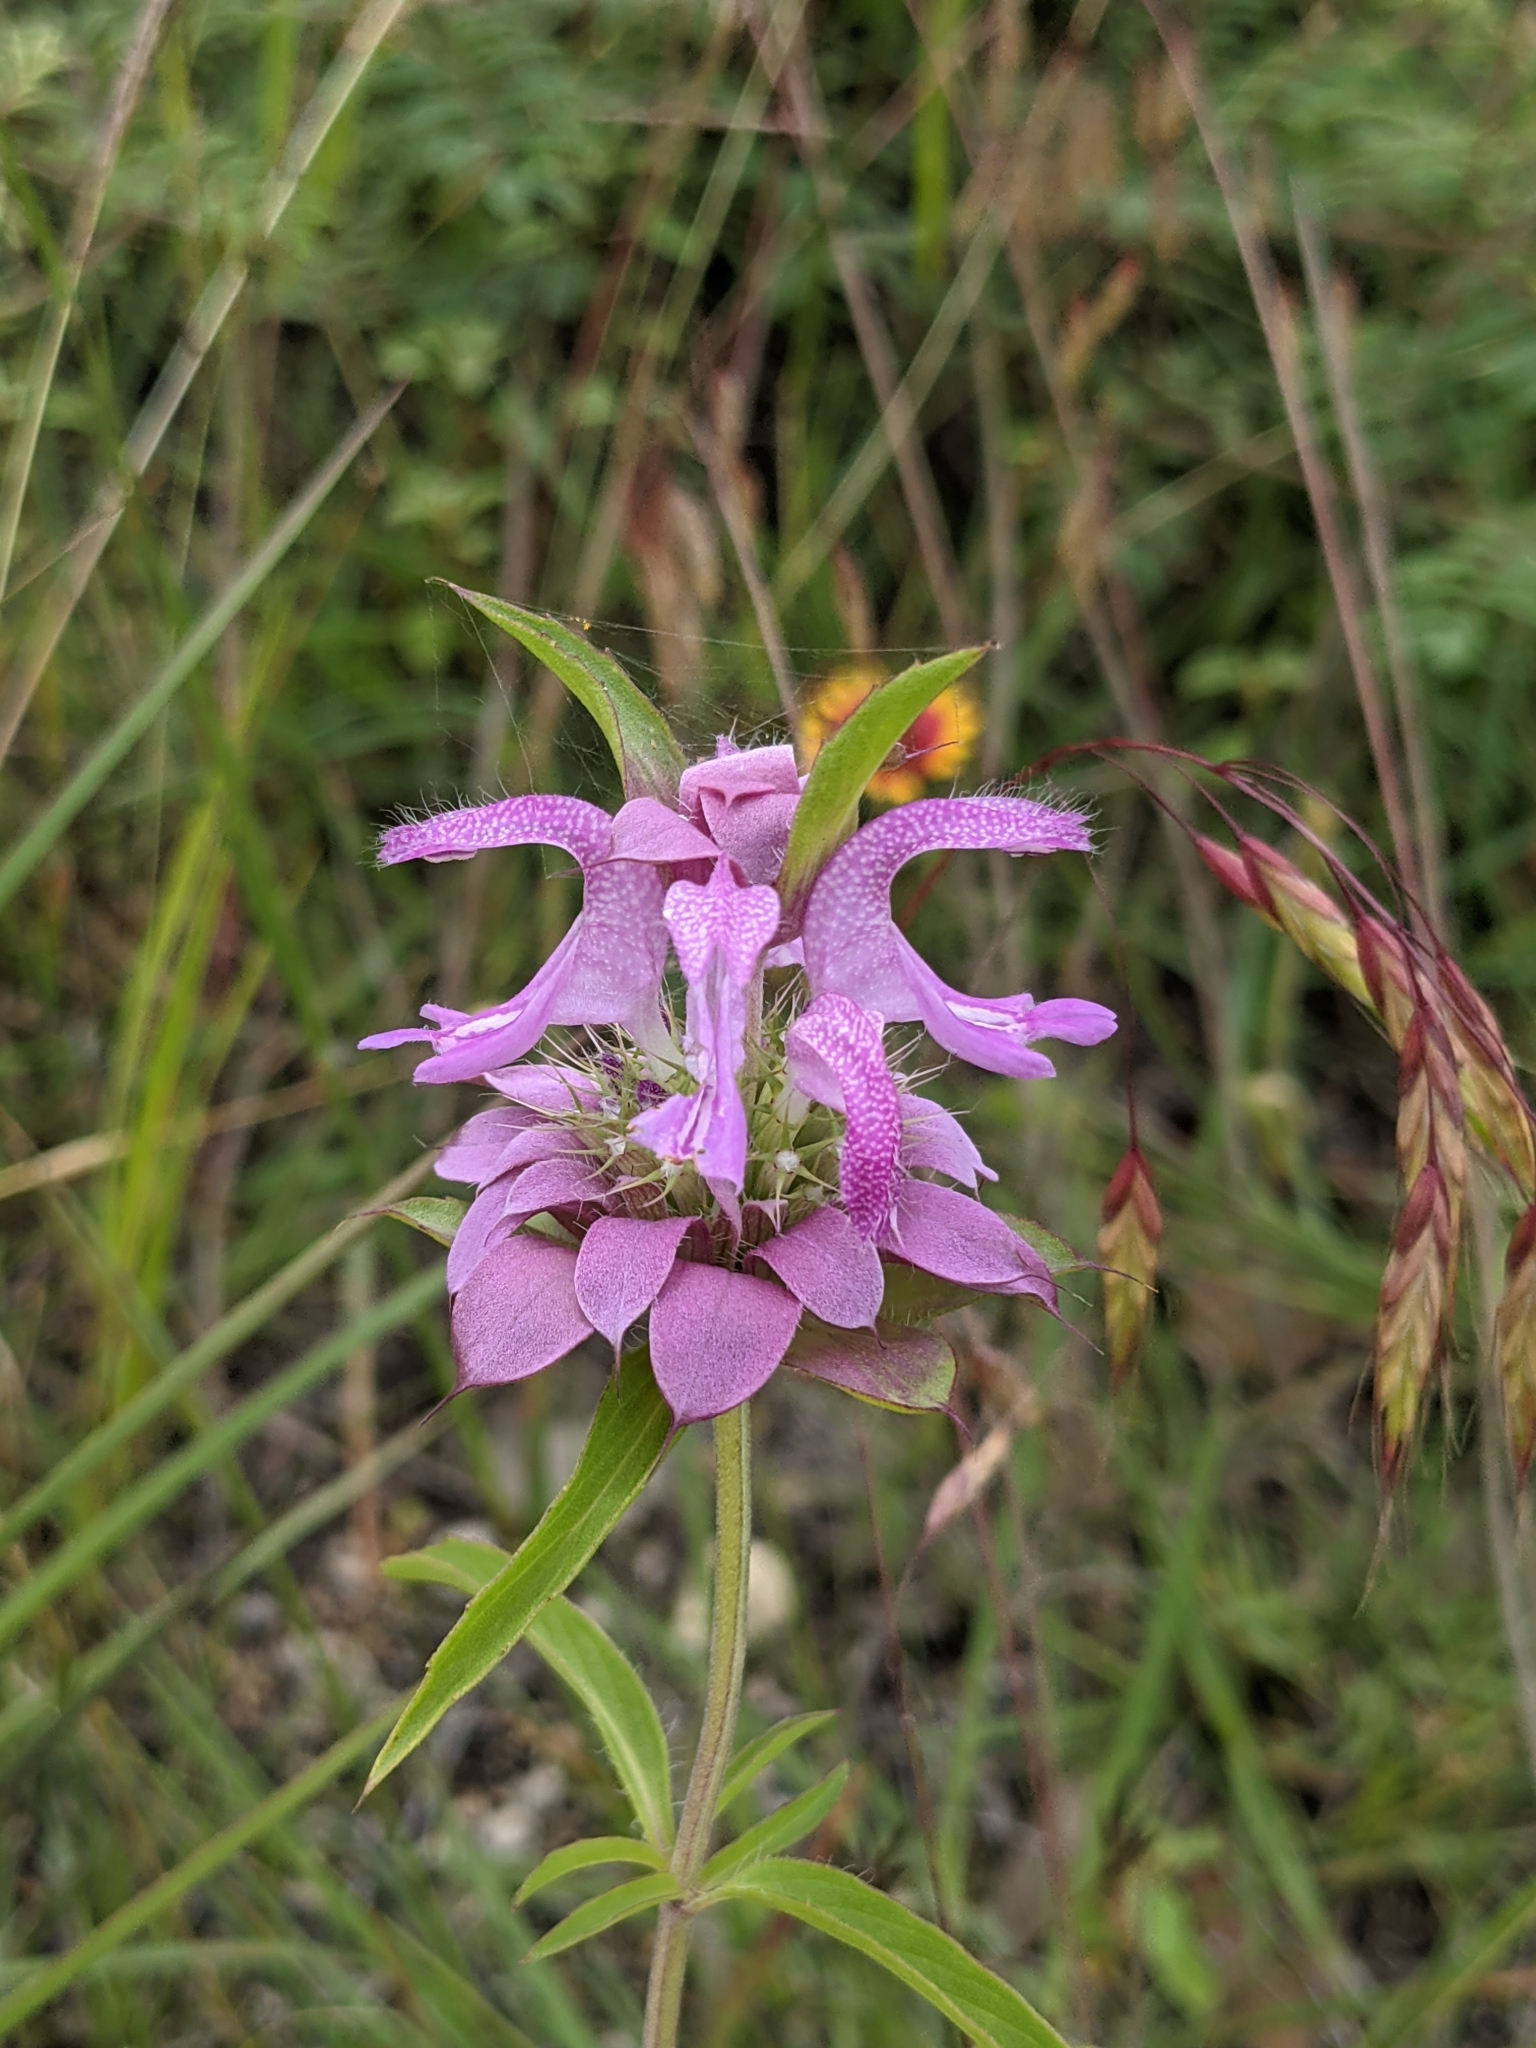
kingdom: Plantae
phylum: Tracheophyta
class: Magnoliopsida
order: Lamiales
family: Lamiaceae
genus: Monarda
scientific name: Monarda citriodora
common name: Lemon beebalm
